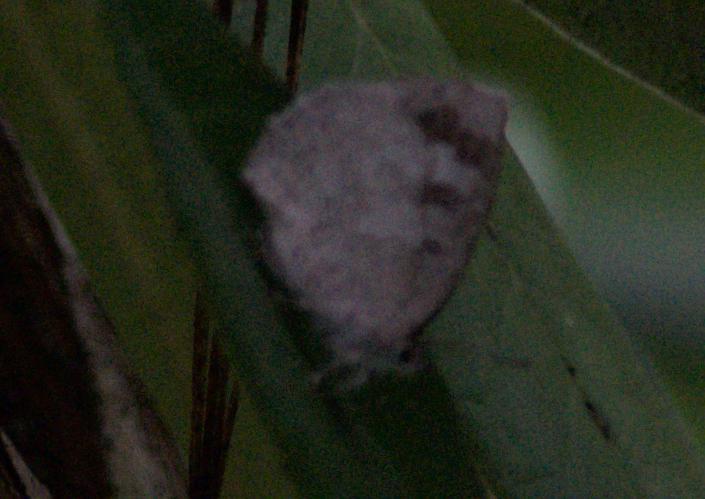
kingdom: Animalia
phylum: Arthropoda
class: Insecta
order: Lepidoptera
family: Lycaenidae
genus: Arhopala
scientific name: Arhopala ganesa
